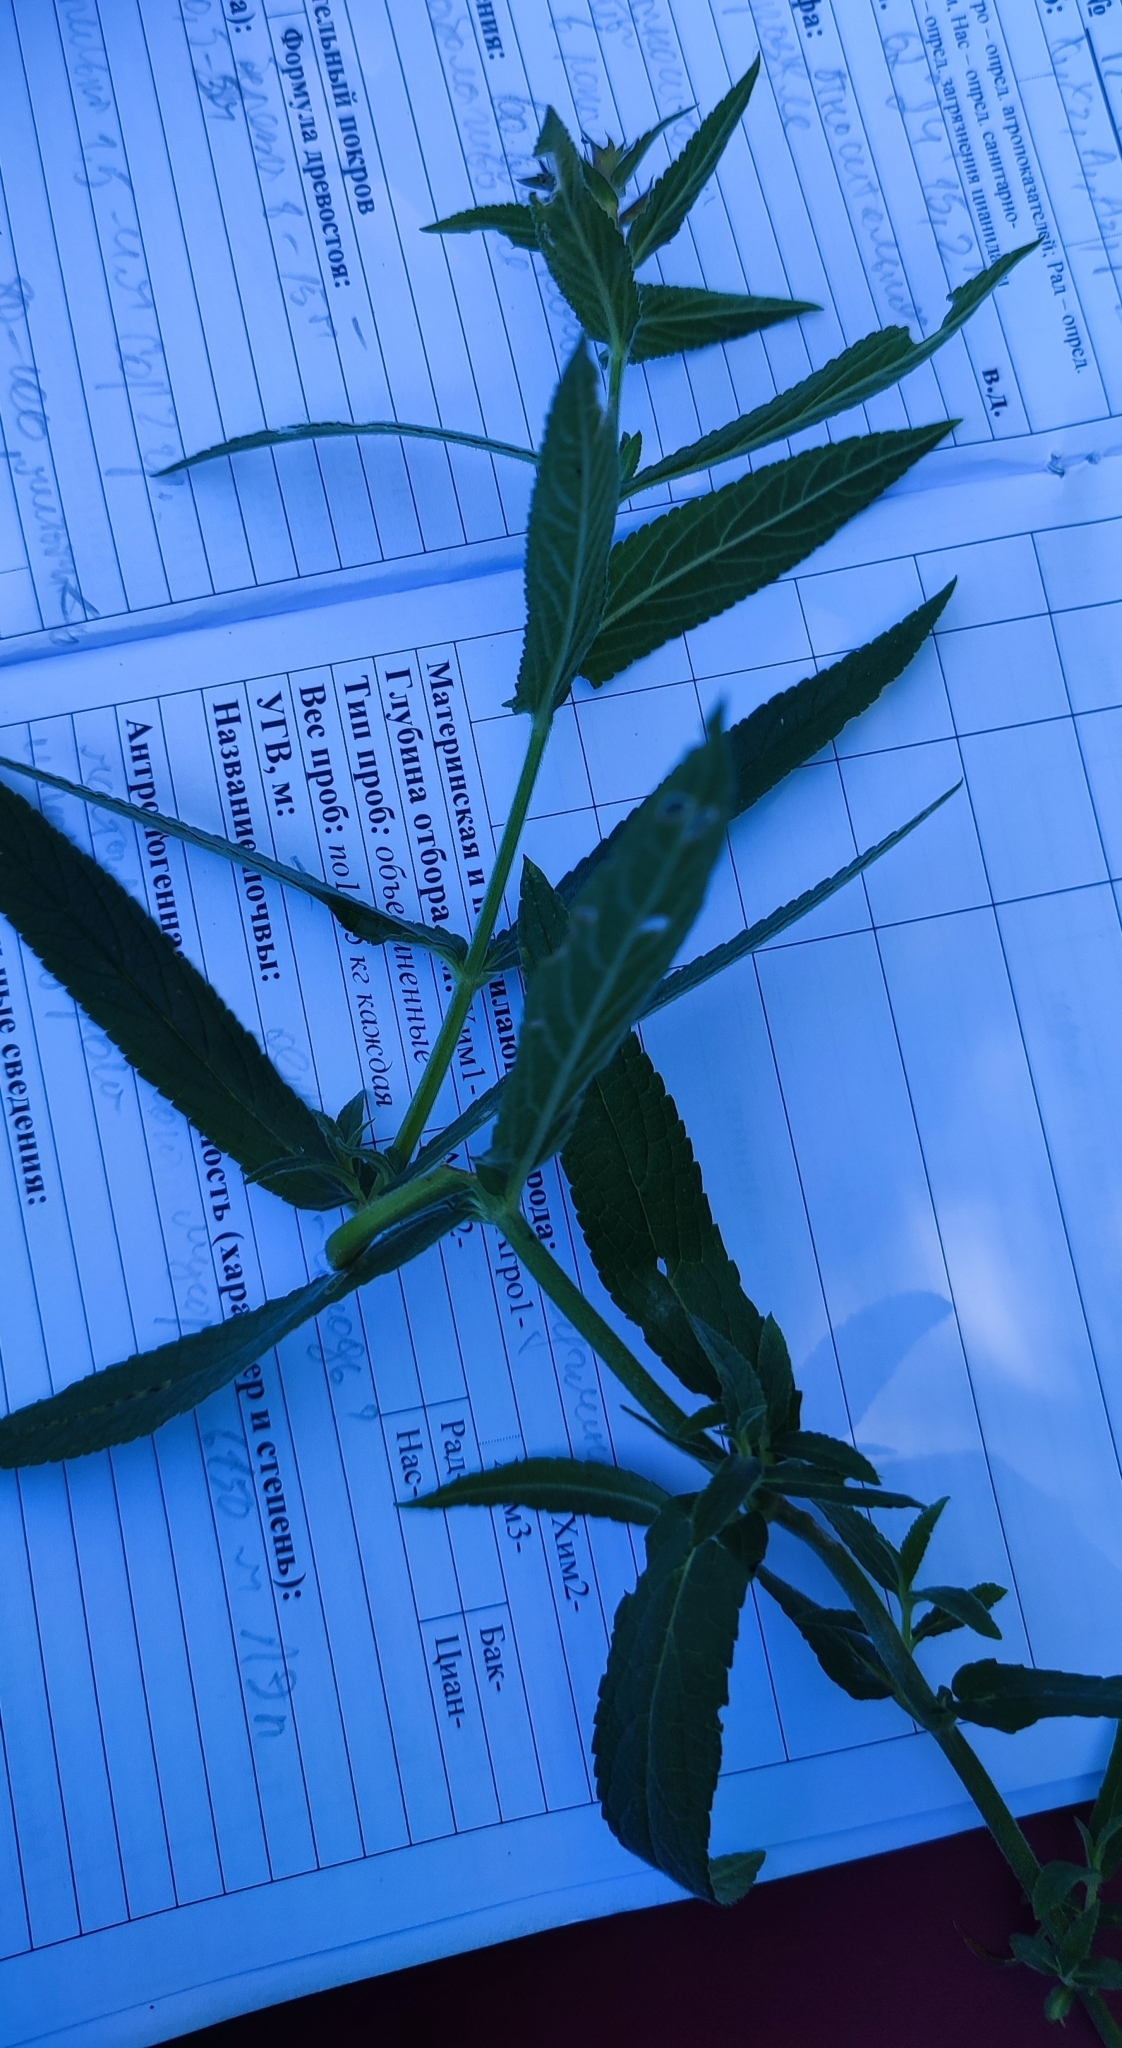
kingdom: Plantae
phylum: Tracheophyta
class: Magnoliopsida
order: Lamiales
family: Lamiaceae
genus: Stachys
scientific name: Stachys palustris
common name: Marsh woundwort
